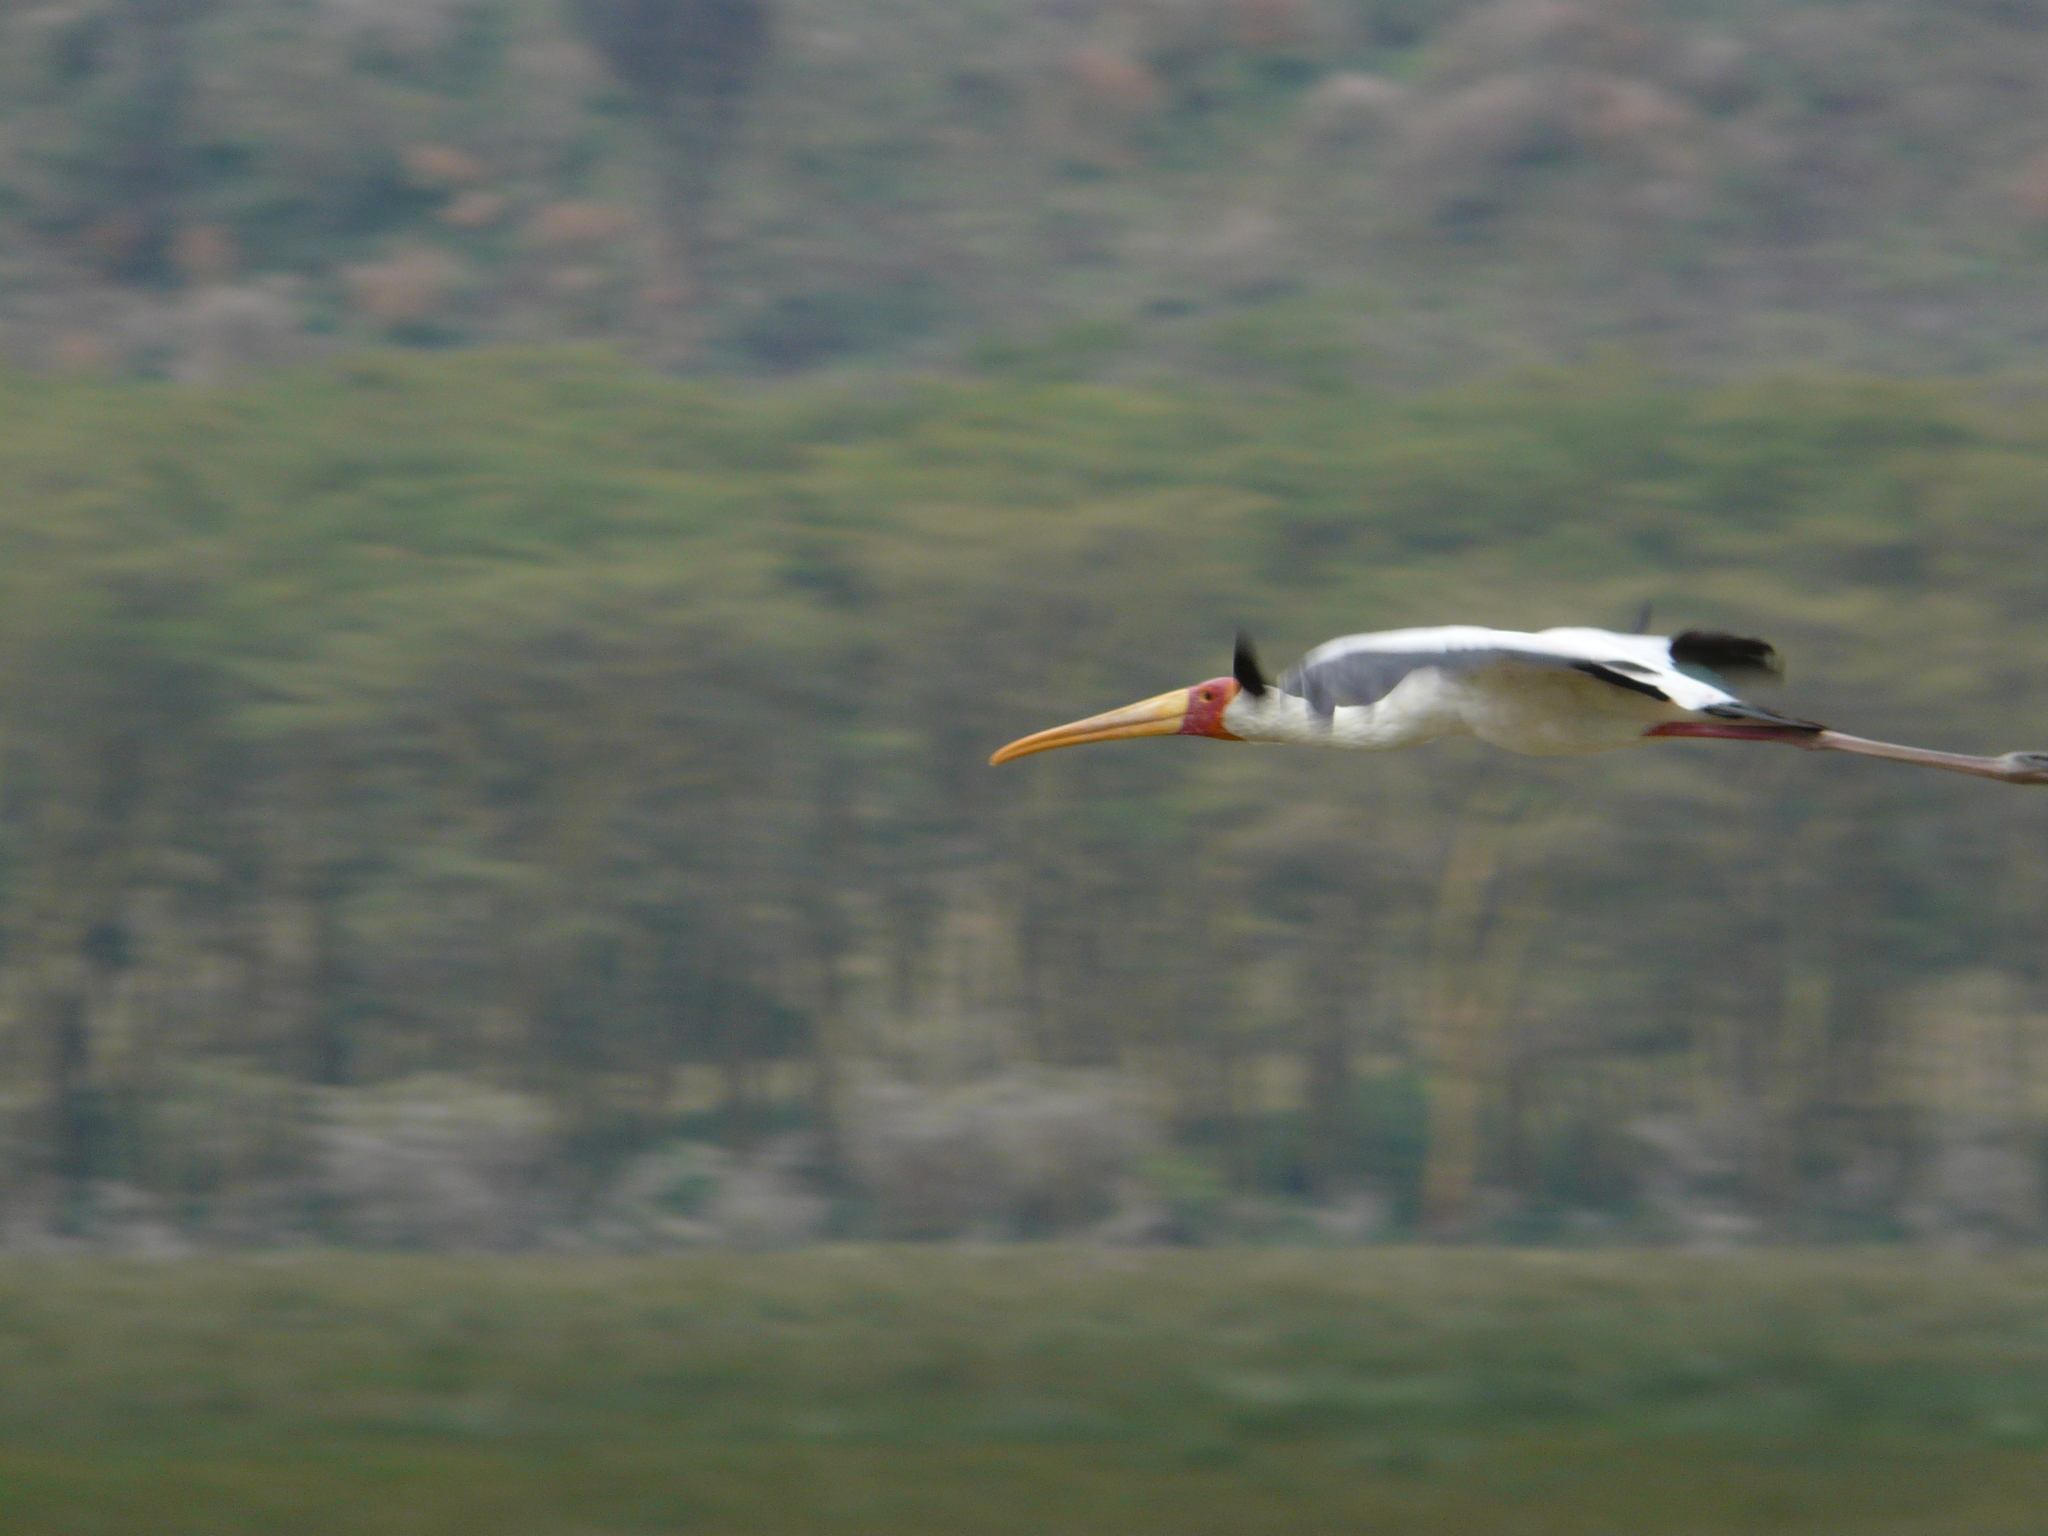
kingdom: Animalia
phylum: Chordata
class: Aves
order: Ciconiiformes
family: Ciconiidae
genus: Mycteria
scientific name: Mycteria ibis
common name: Yellow-billed stork
